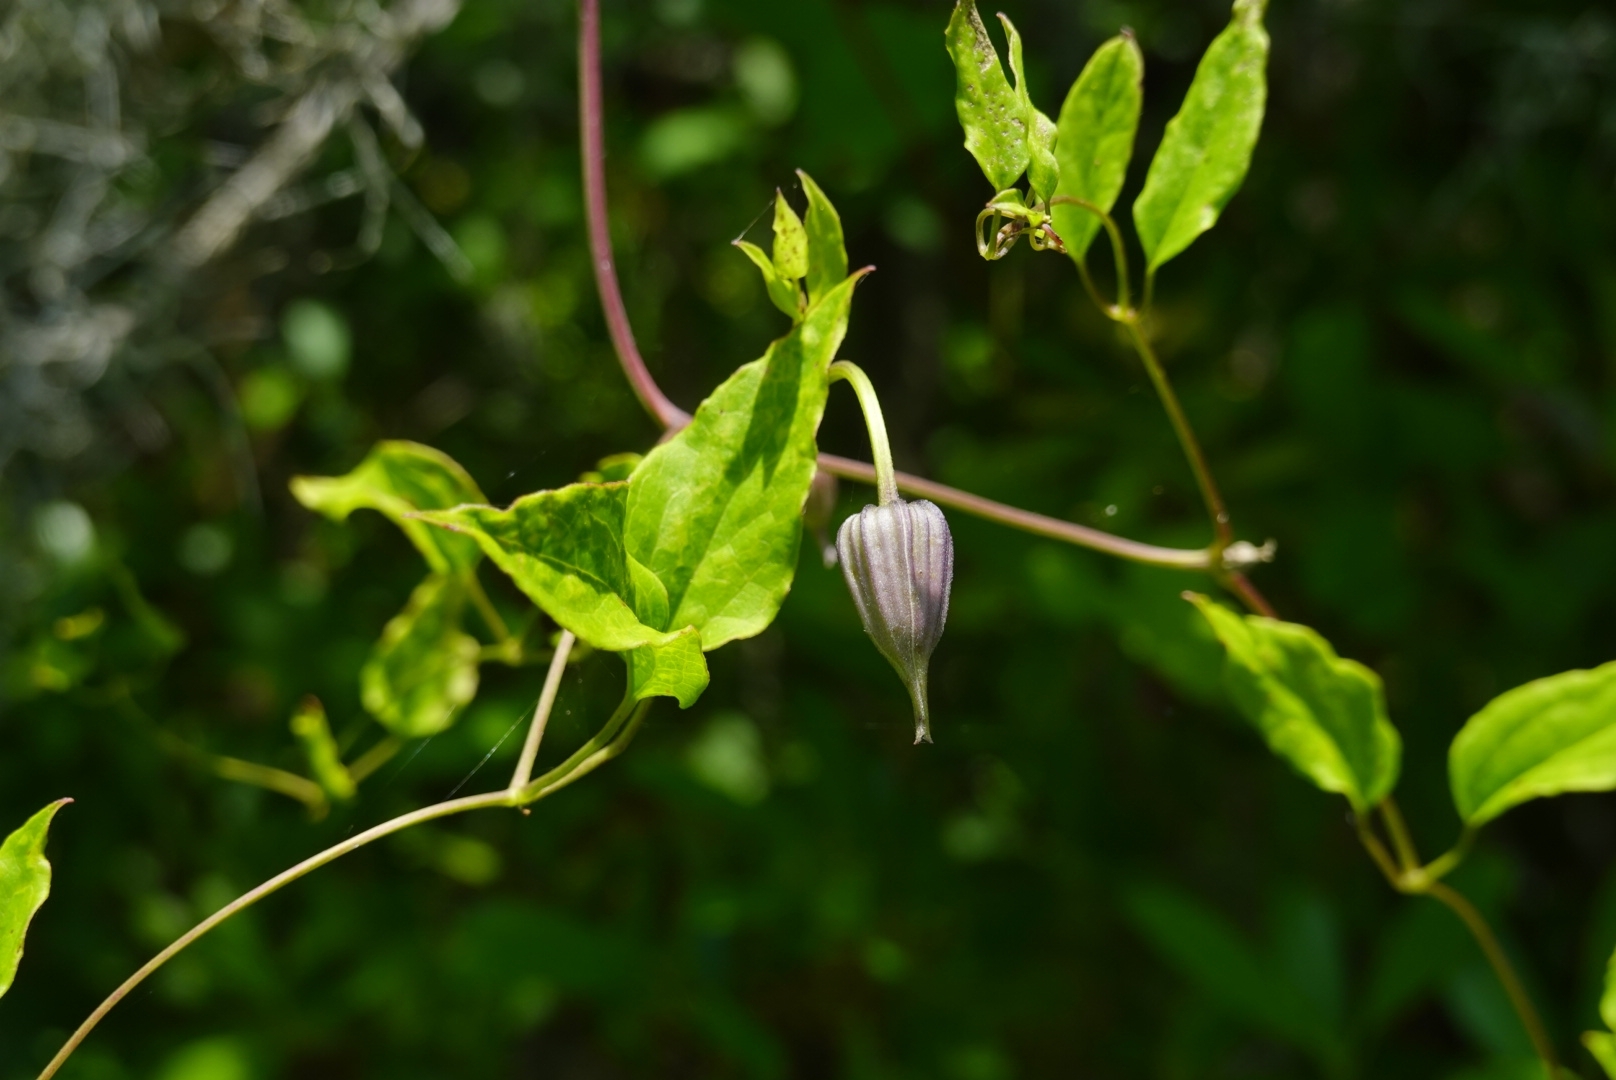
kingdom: Plantae
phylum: Tracheophyta
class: Magnoliopsida
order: Ranunculales
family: Ranunculaceae
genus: Clematis
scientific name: Clematis crispa
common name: Curly clematis
